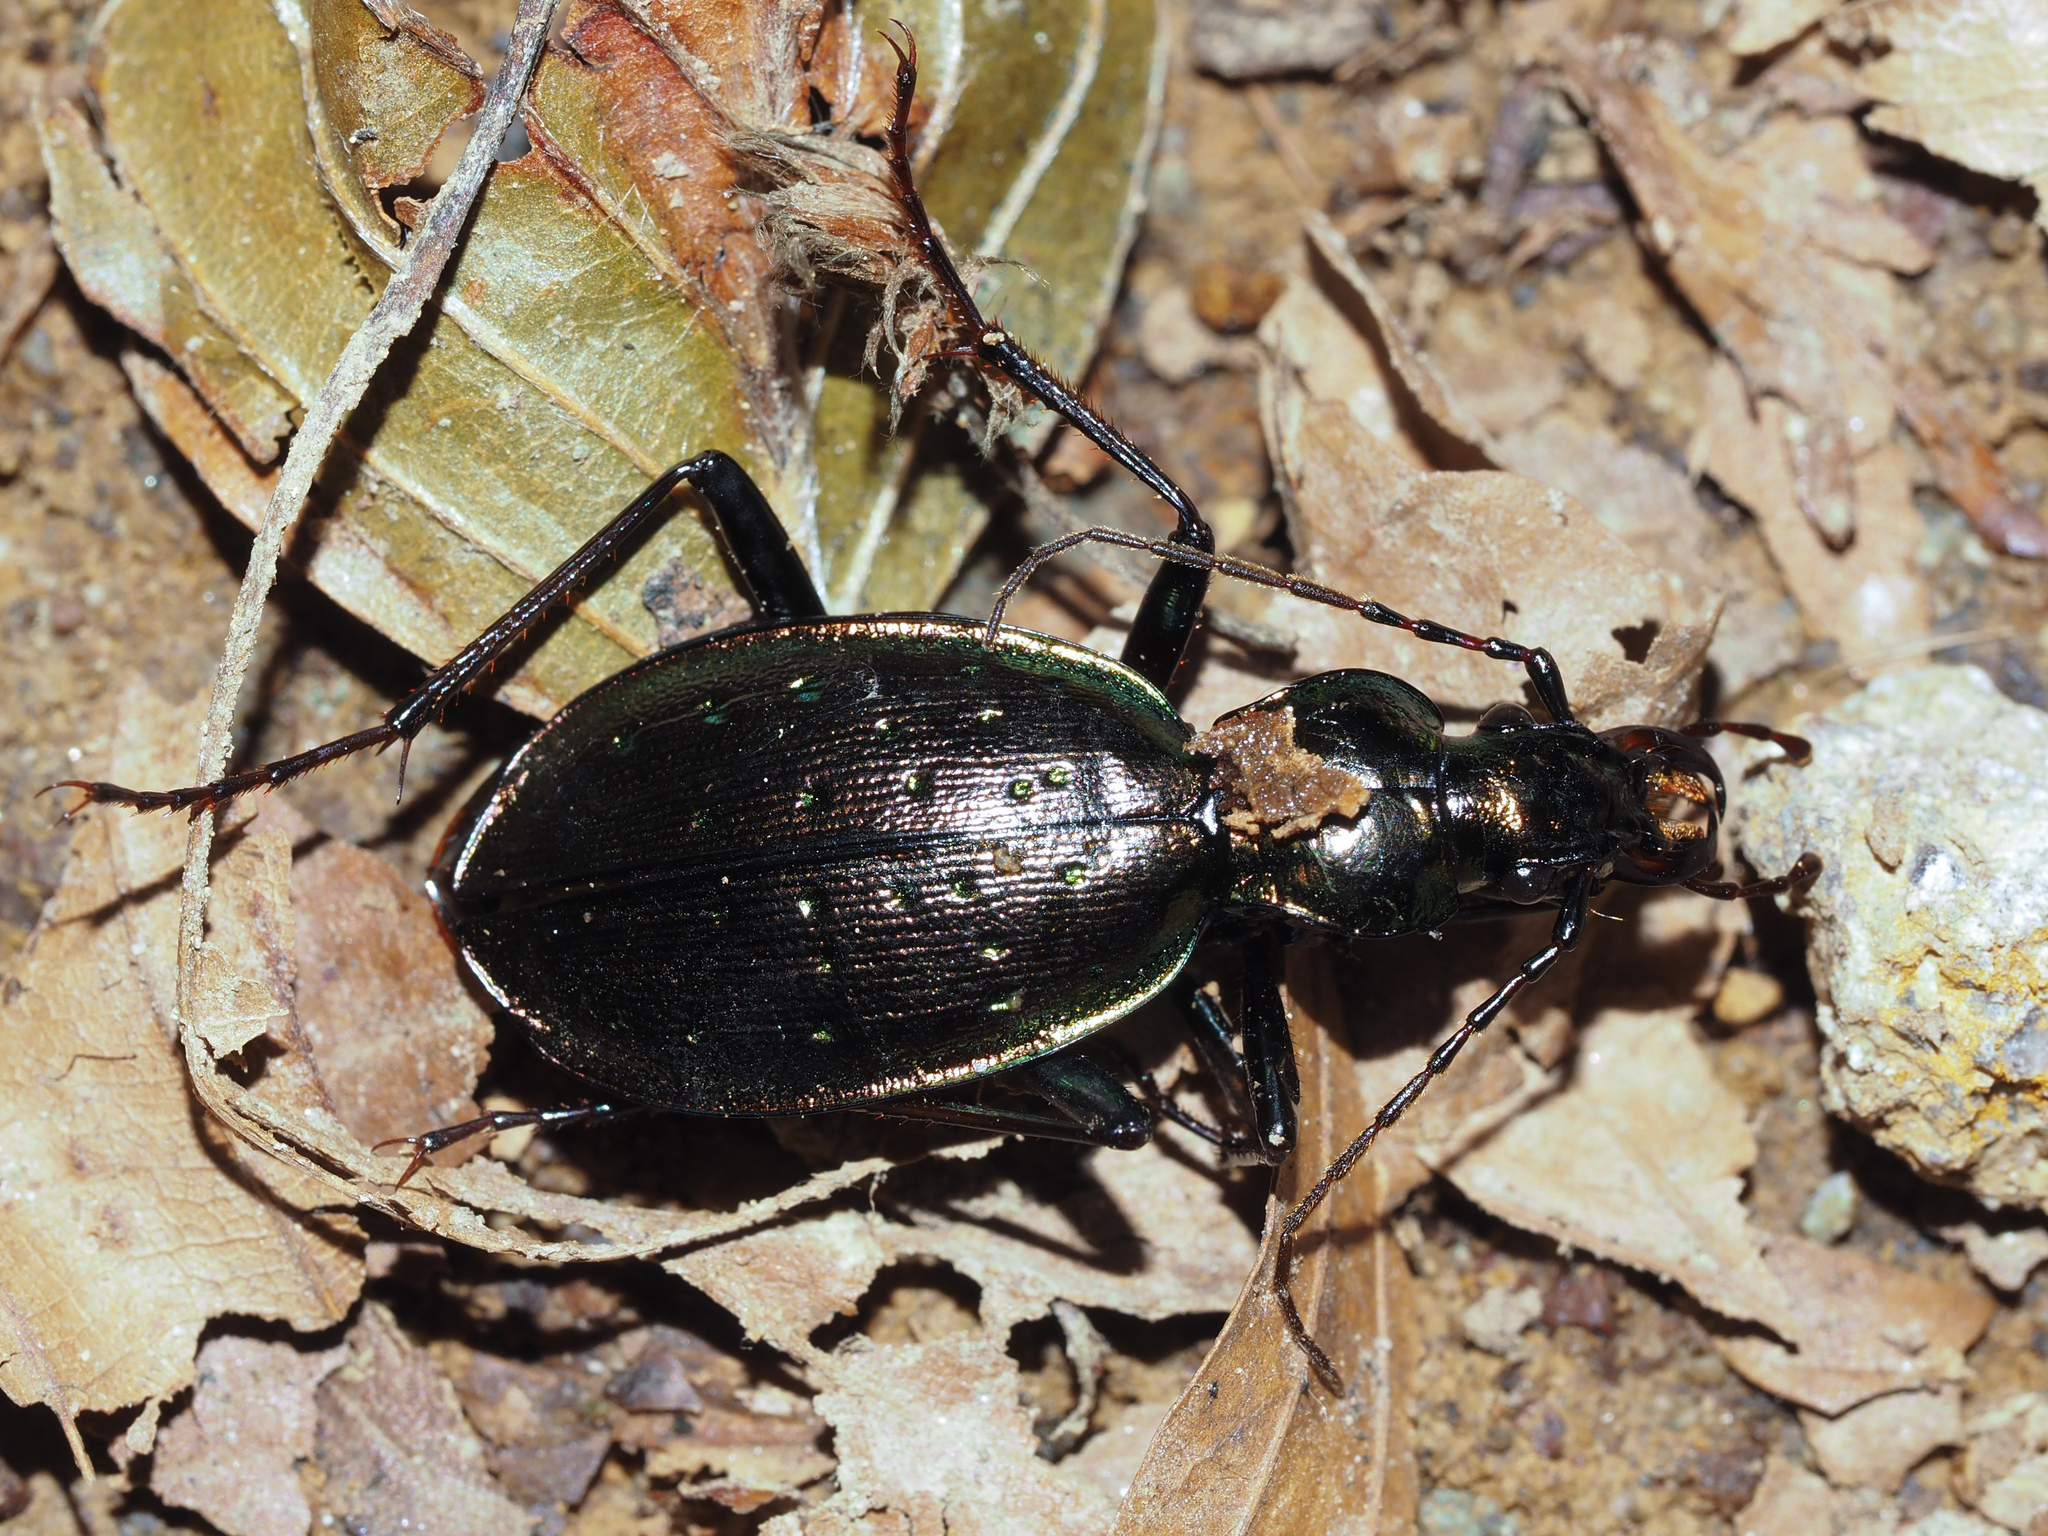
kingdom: Animalia
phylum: Arthropoda
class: Insecta
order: Coleoptera
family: Carabidae
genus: Carabus
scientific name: Carabus depressus
